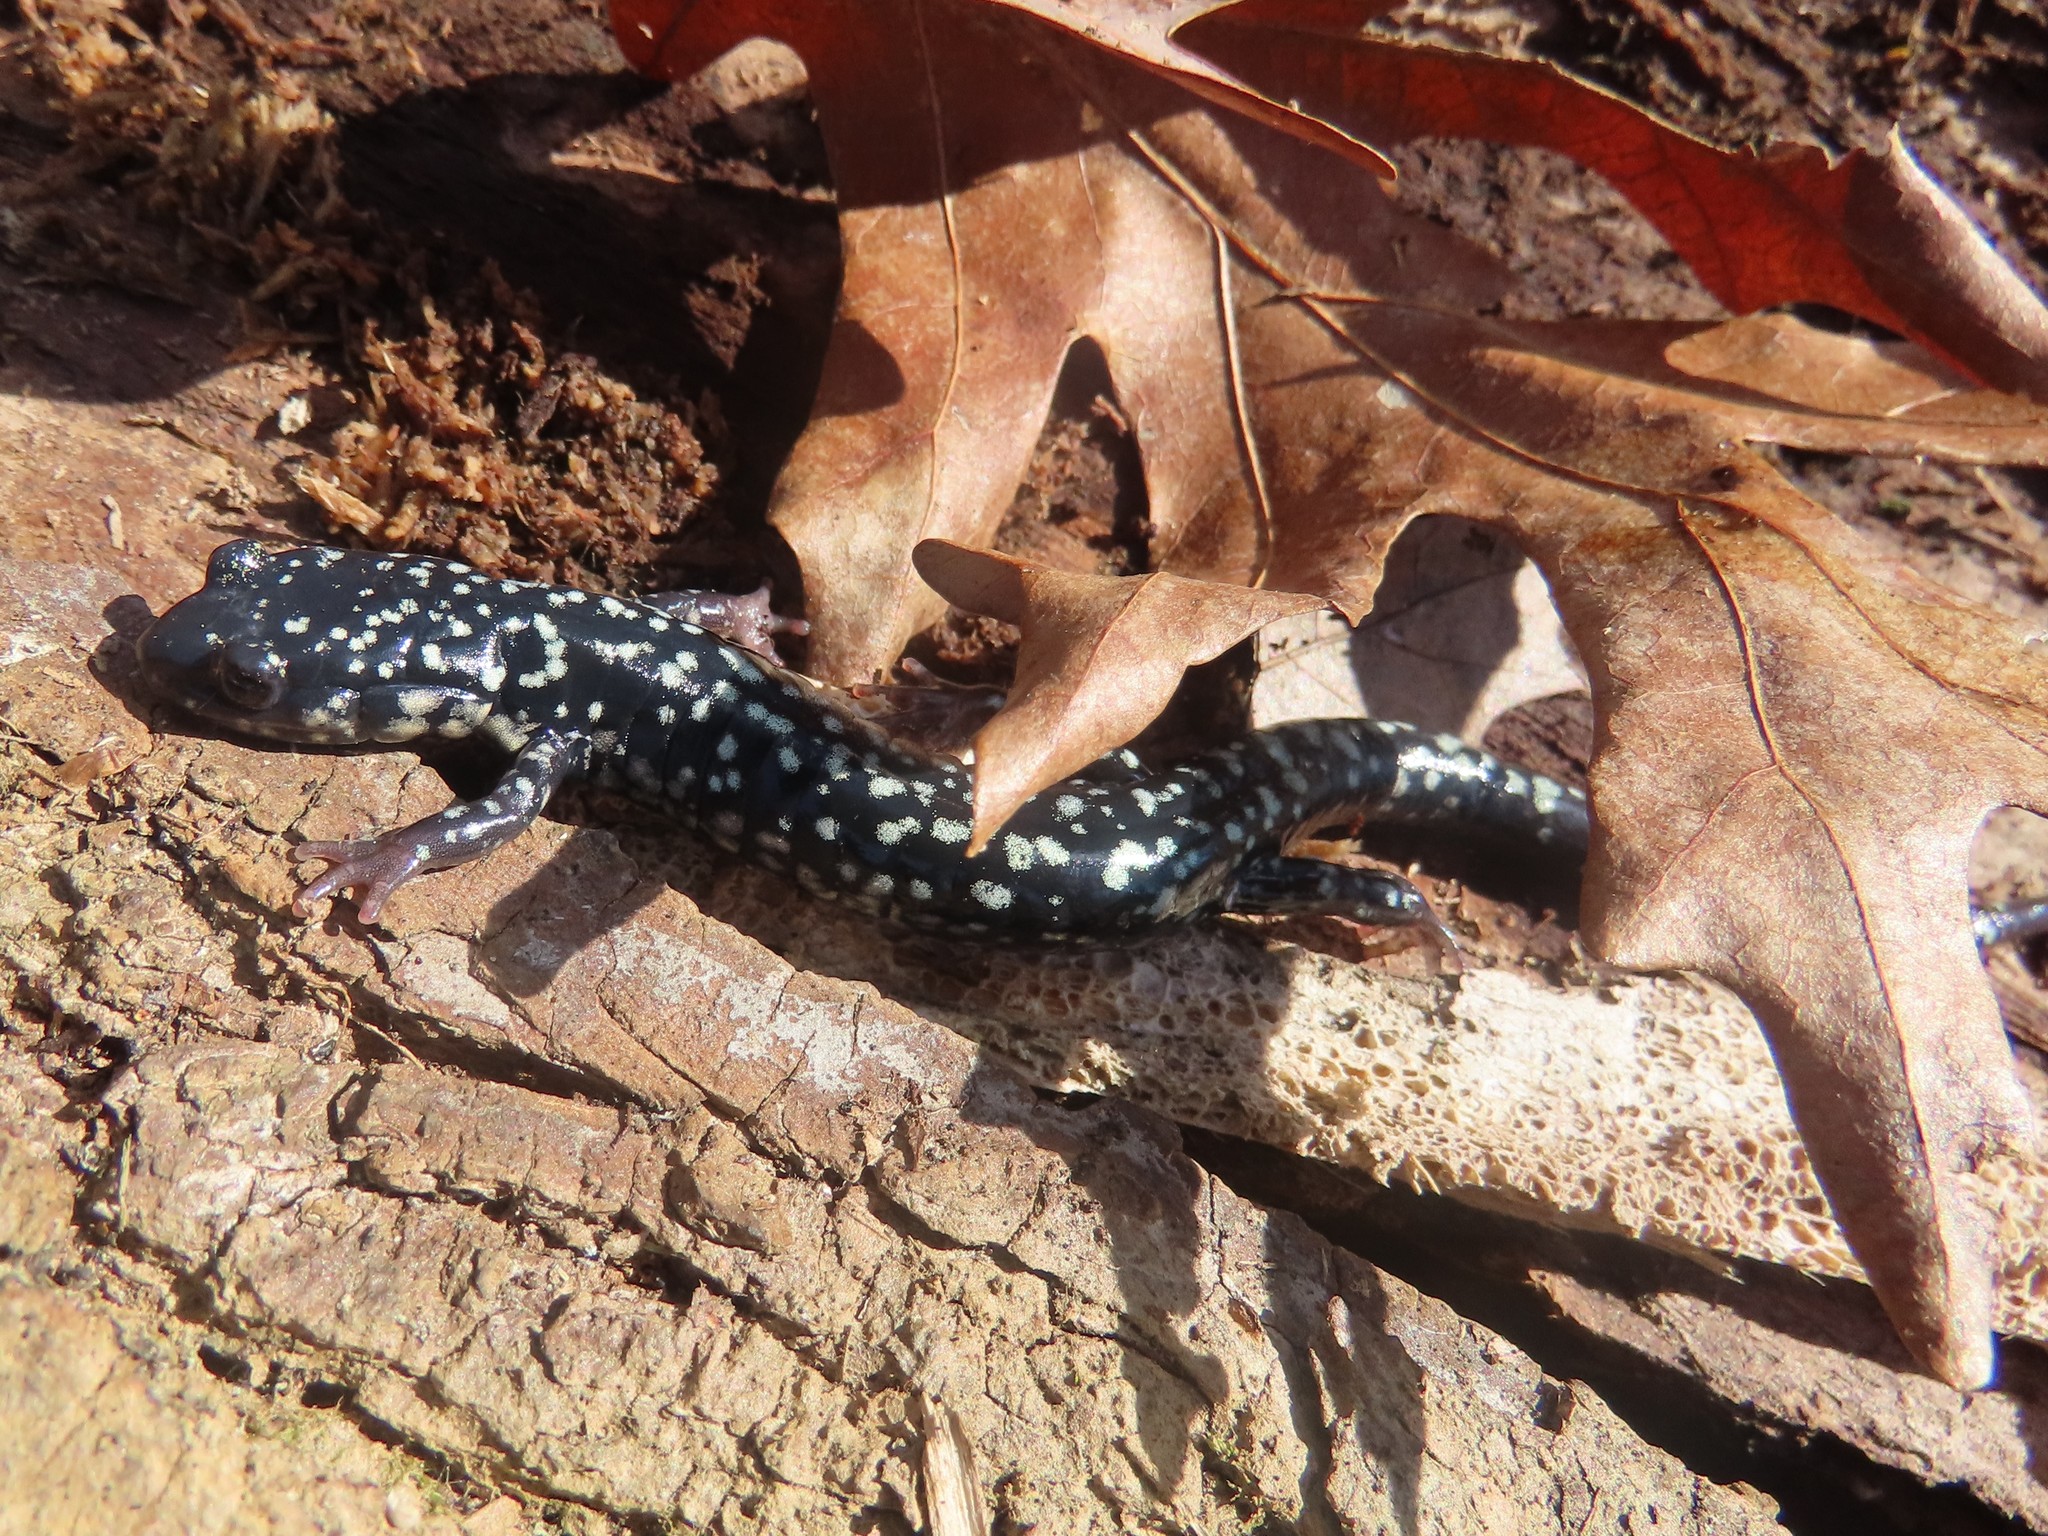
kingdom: Animalia
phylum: Chordata
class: Amphibia
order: Caudata
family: Plethodontidae
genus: Plethodon
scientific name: Plethodon glutinosus
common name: Northern slimy salamander
